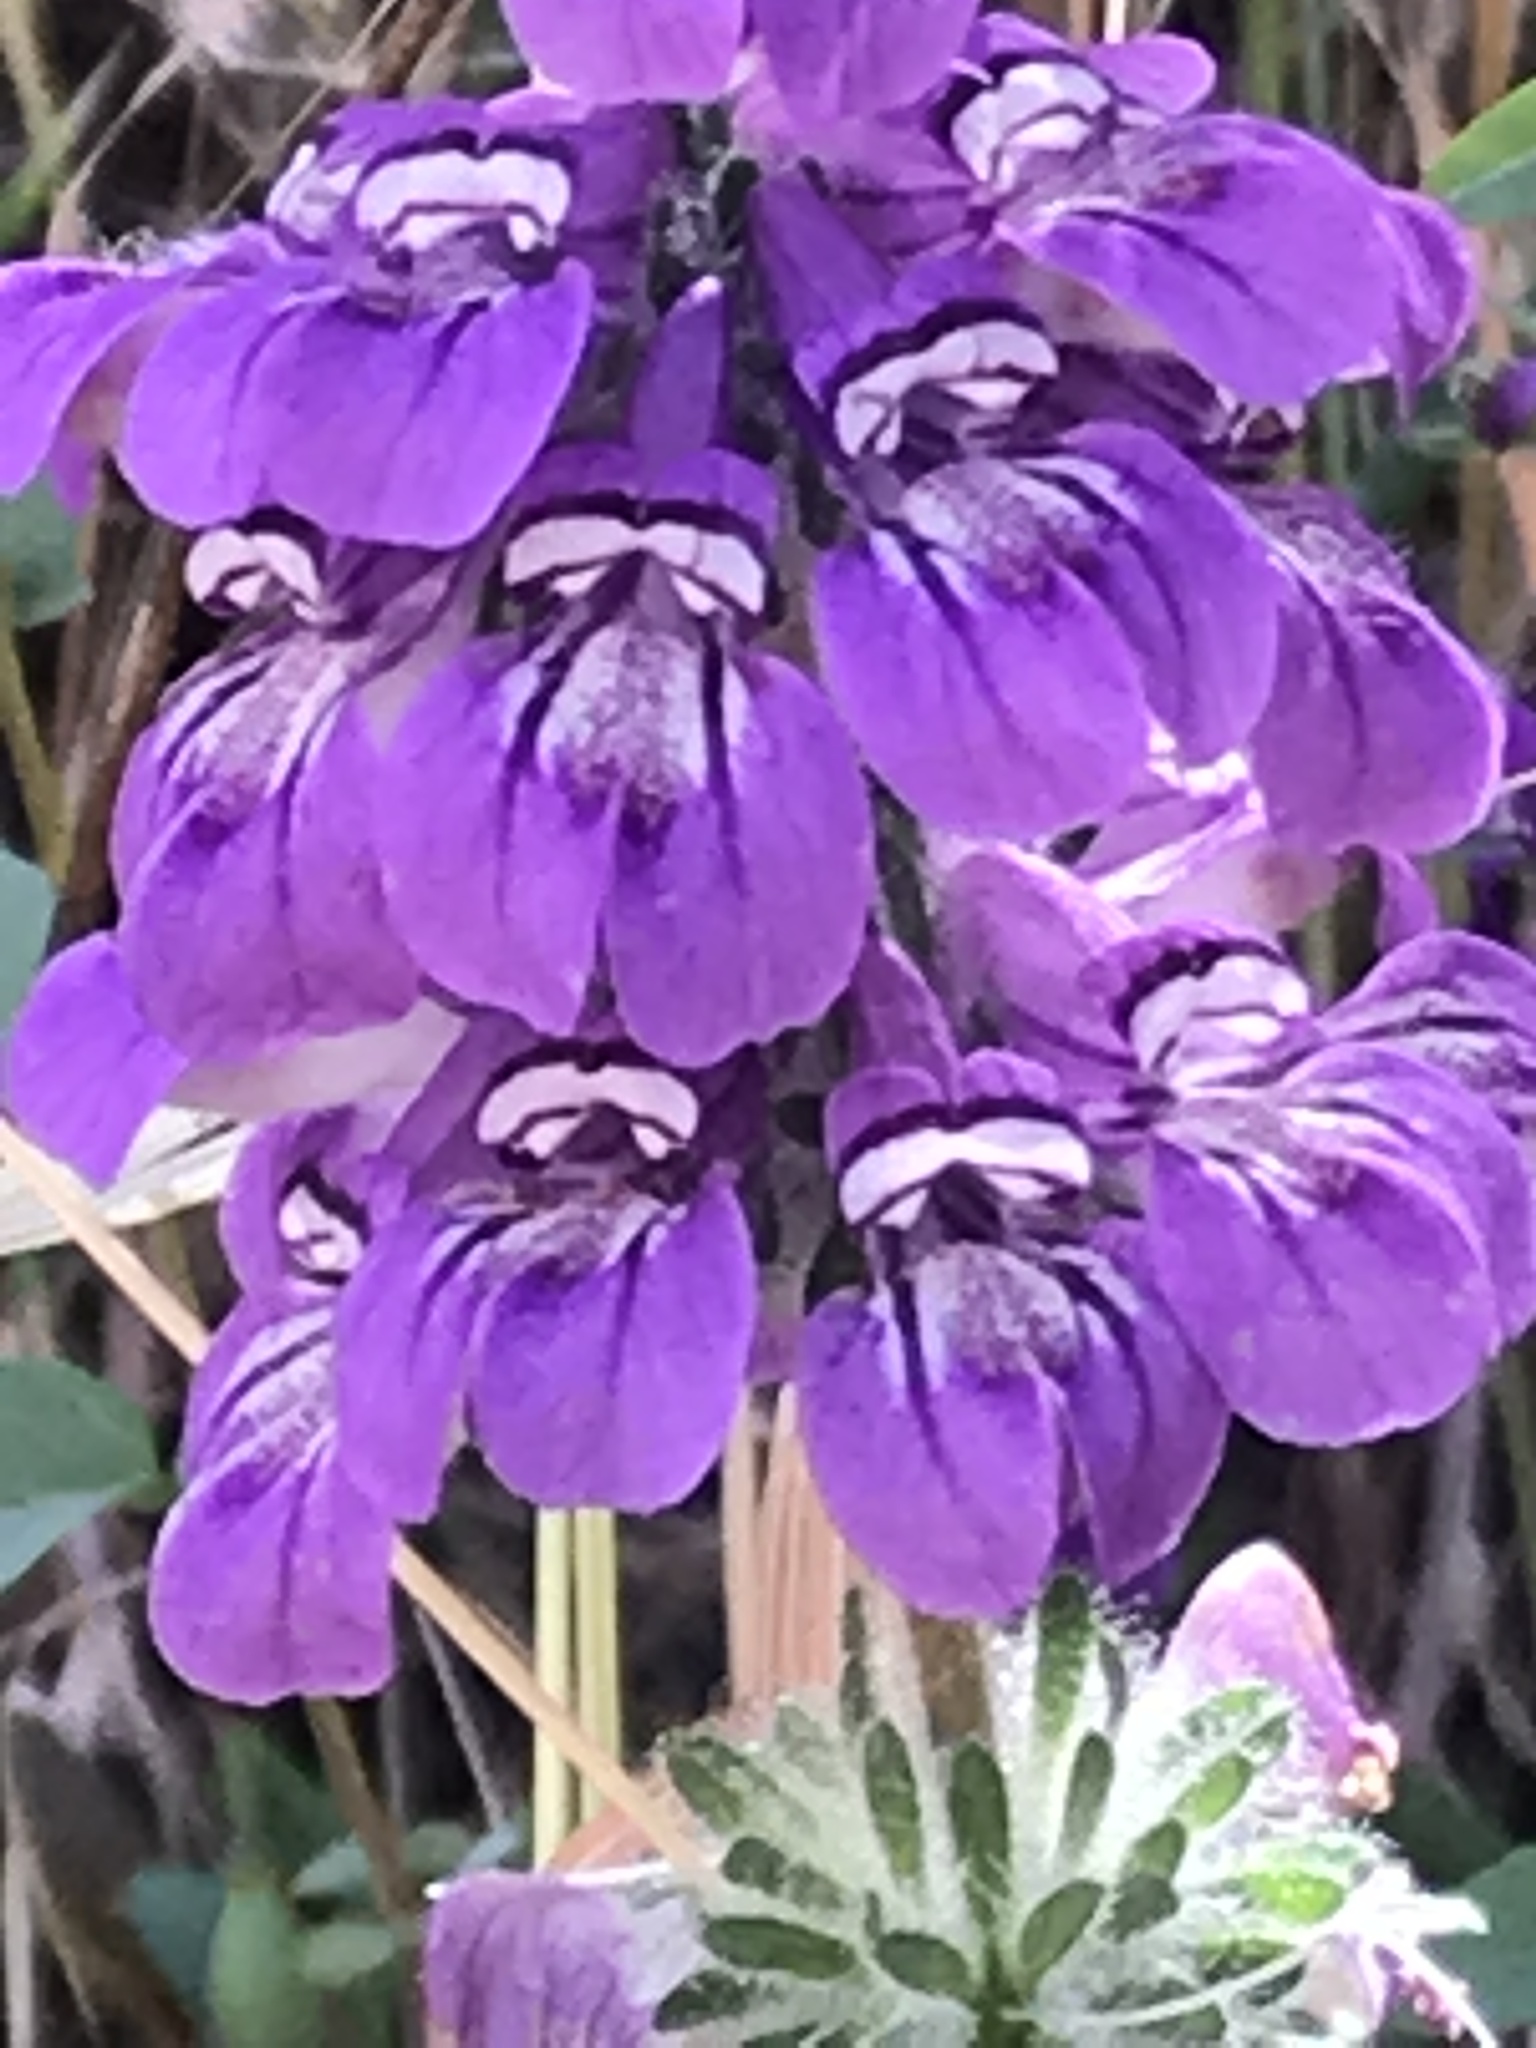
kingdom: Plantae
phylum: Tracheophyta
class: Magnoliopsida
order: Lamiales
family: Plantaginaceae
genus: Collinsia
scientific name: Collinsia heterophylla
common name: Chinese-houses
